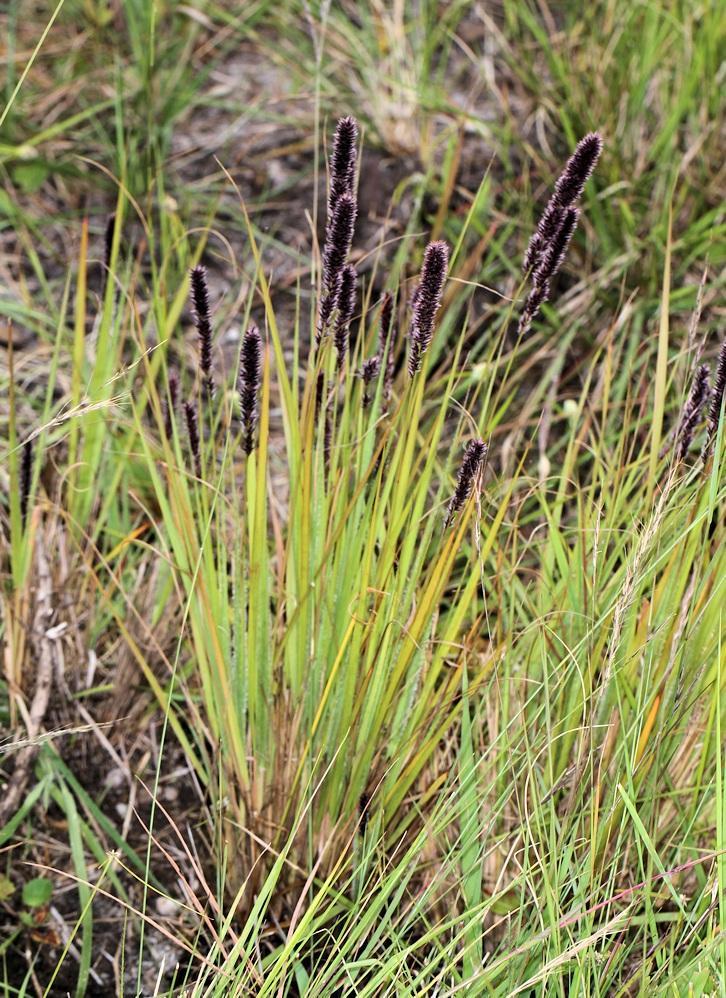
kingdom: Plantae
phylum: Tracheophyta
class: Liliopsida
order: Poales
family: Poaceae
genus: Stiburus
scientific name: Stiburus alopecuroides
